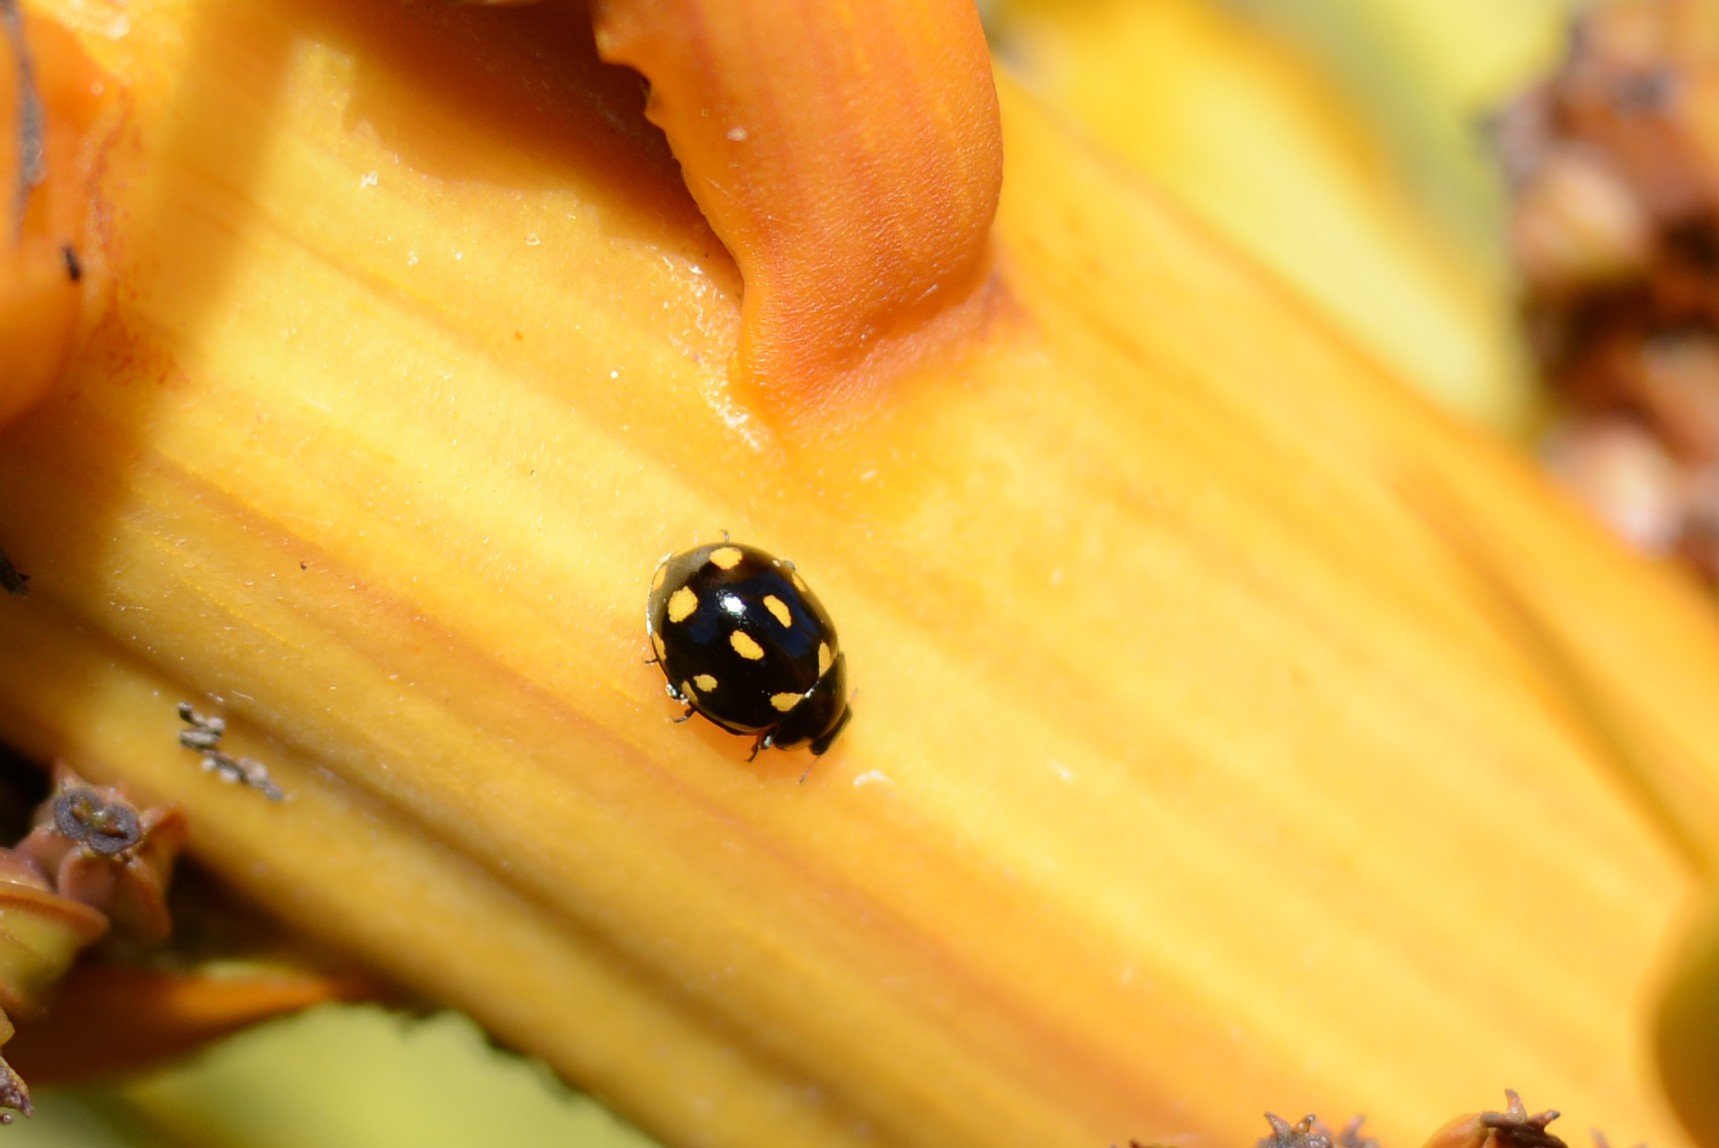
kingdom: Animalia
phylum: Arthropoda
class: Insecta
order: Coleoptera
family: Coccinellidae
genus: Coccinella
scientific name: Coccinella leonina
